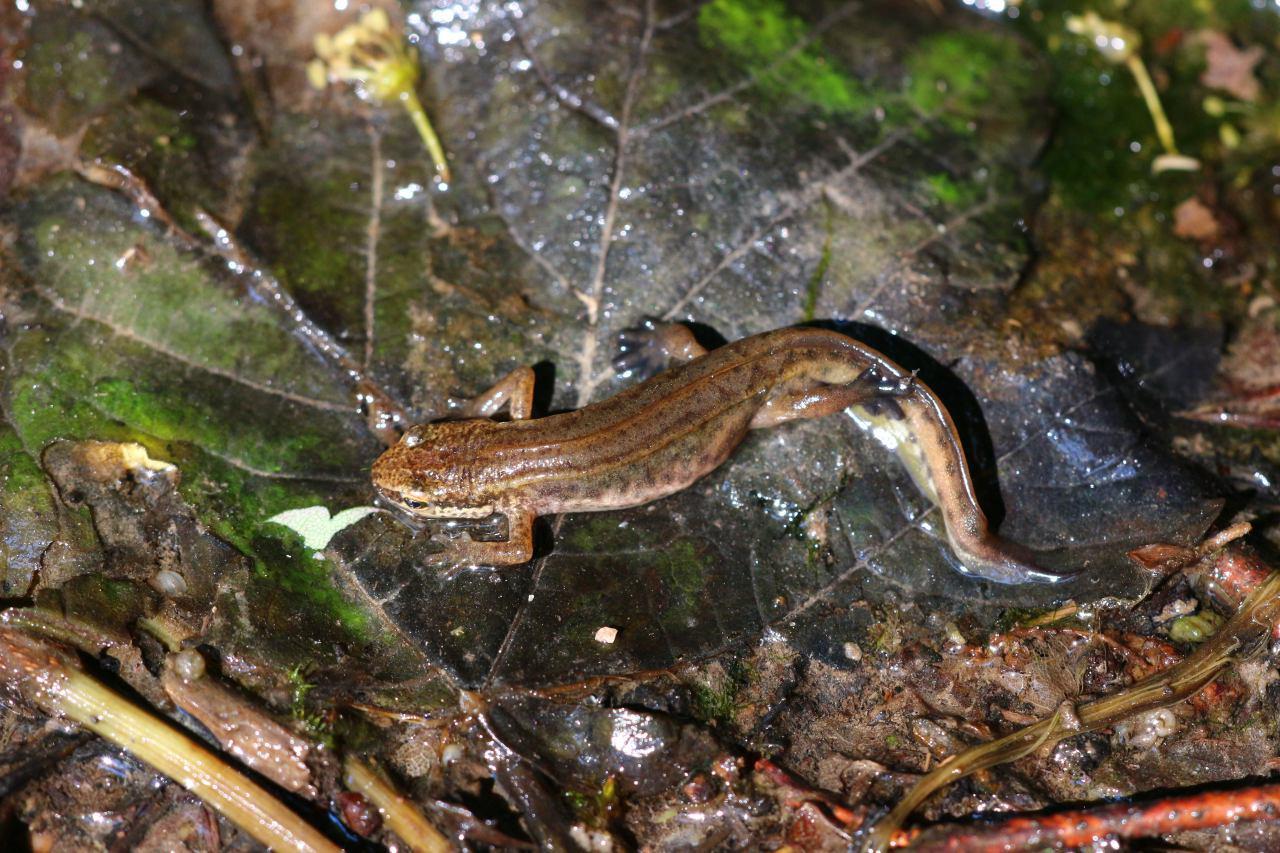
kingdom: Animalia
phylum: Chordata
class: Amphibia
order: Caudata
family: Salamandridae
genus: Lissotriton
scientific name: Lissotriton helveticus
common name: Palmate newt
